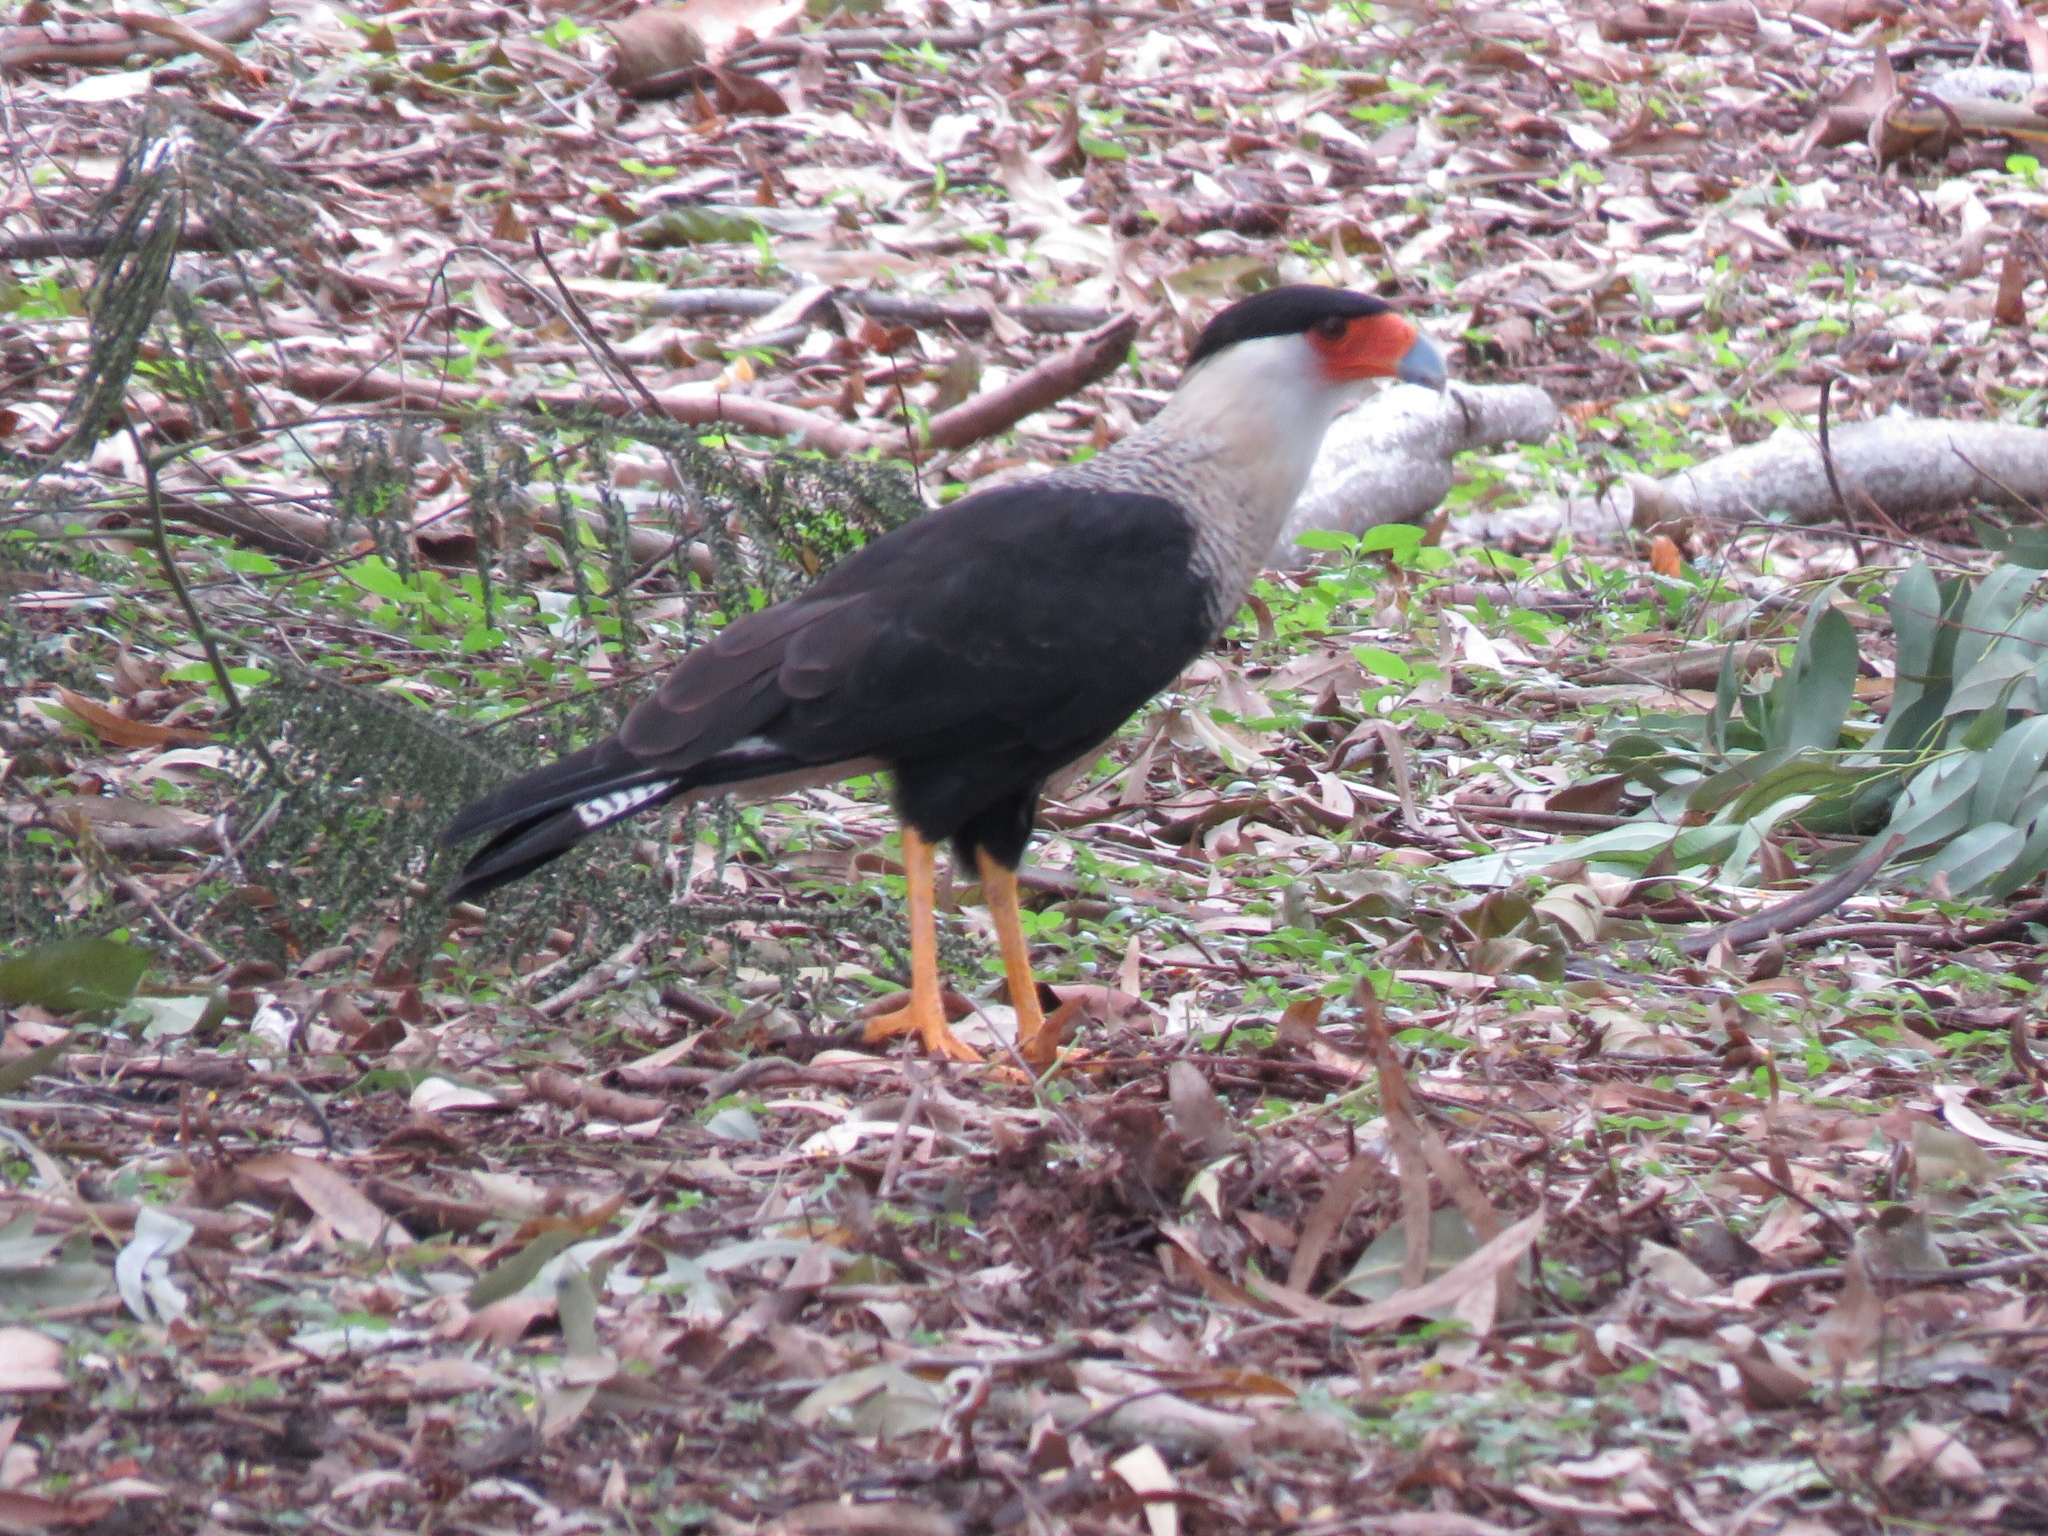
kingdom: Animalia
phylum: Chordata
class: Aves
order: Falconiformes
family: Falconidae
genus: Caracara
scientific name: Caracara plancus
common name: Southern caracara
